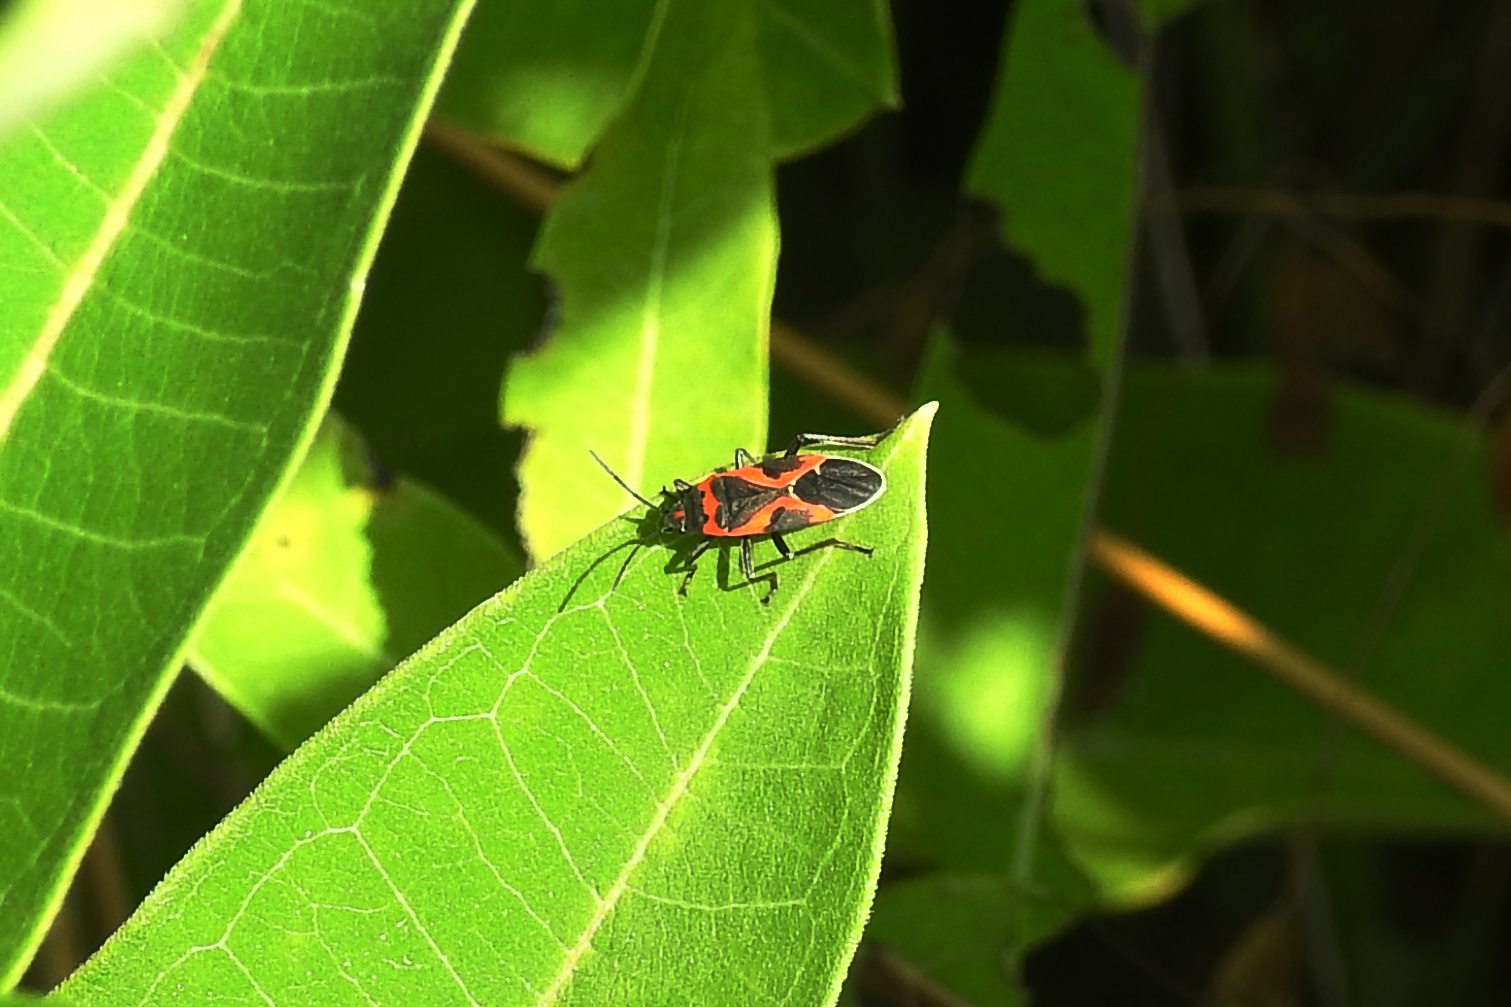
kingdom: Animalia
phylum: Arthropoda
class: Insecta
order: Hemiptera
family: Lygaeidae
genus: Lygaeus
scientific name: Lygaeus kalmii
